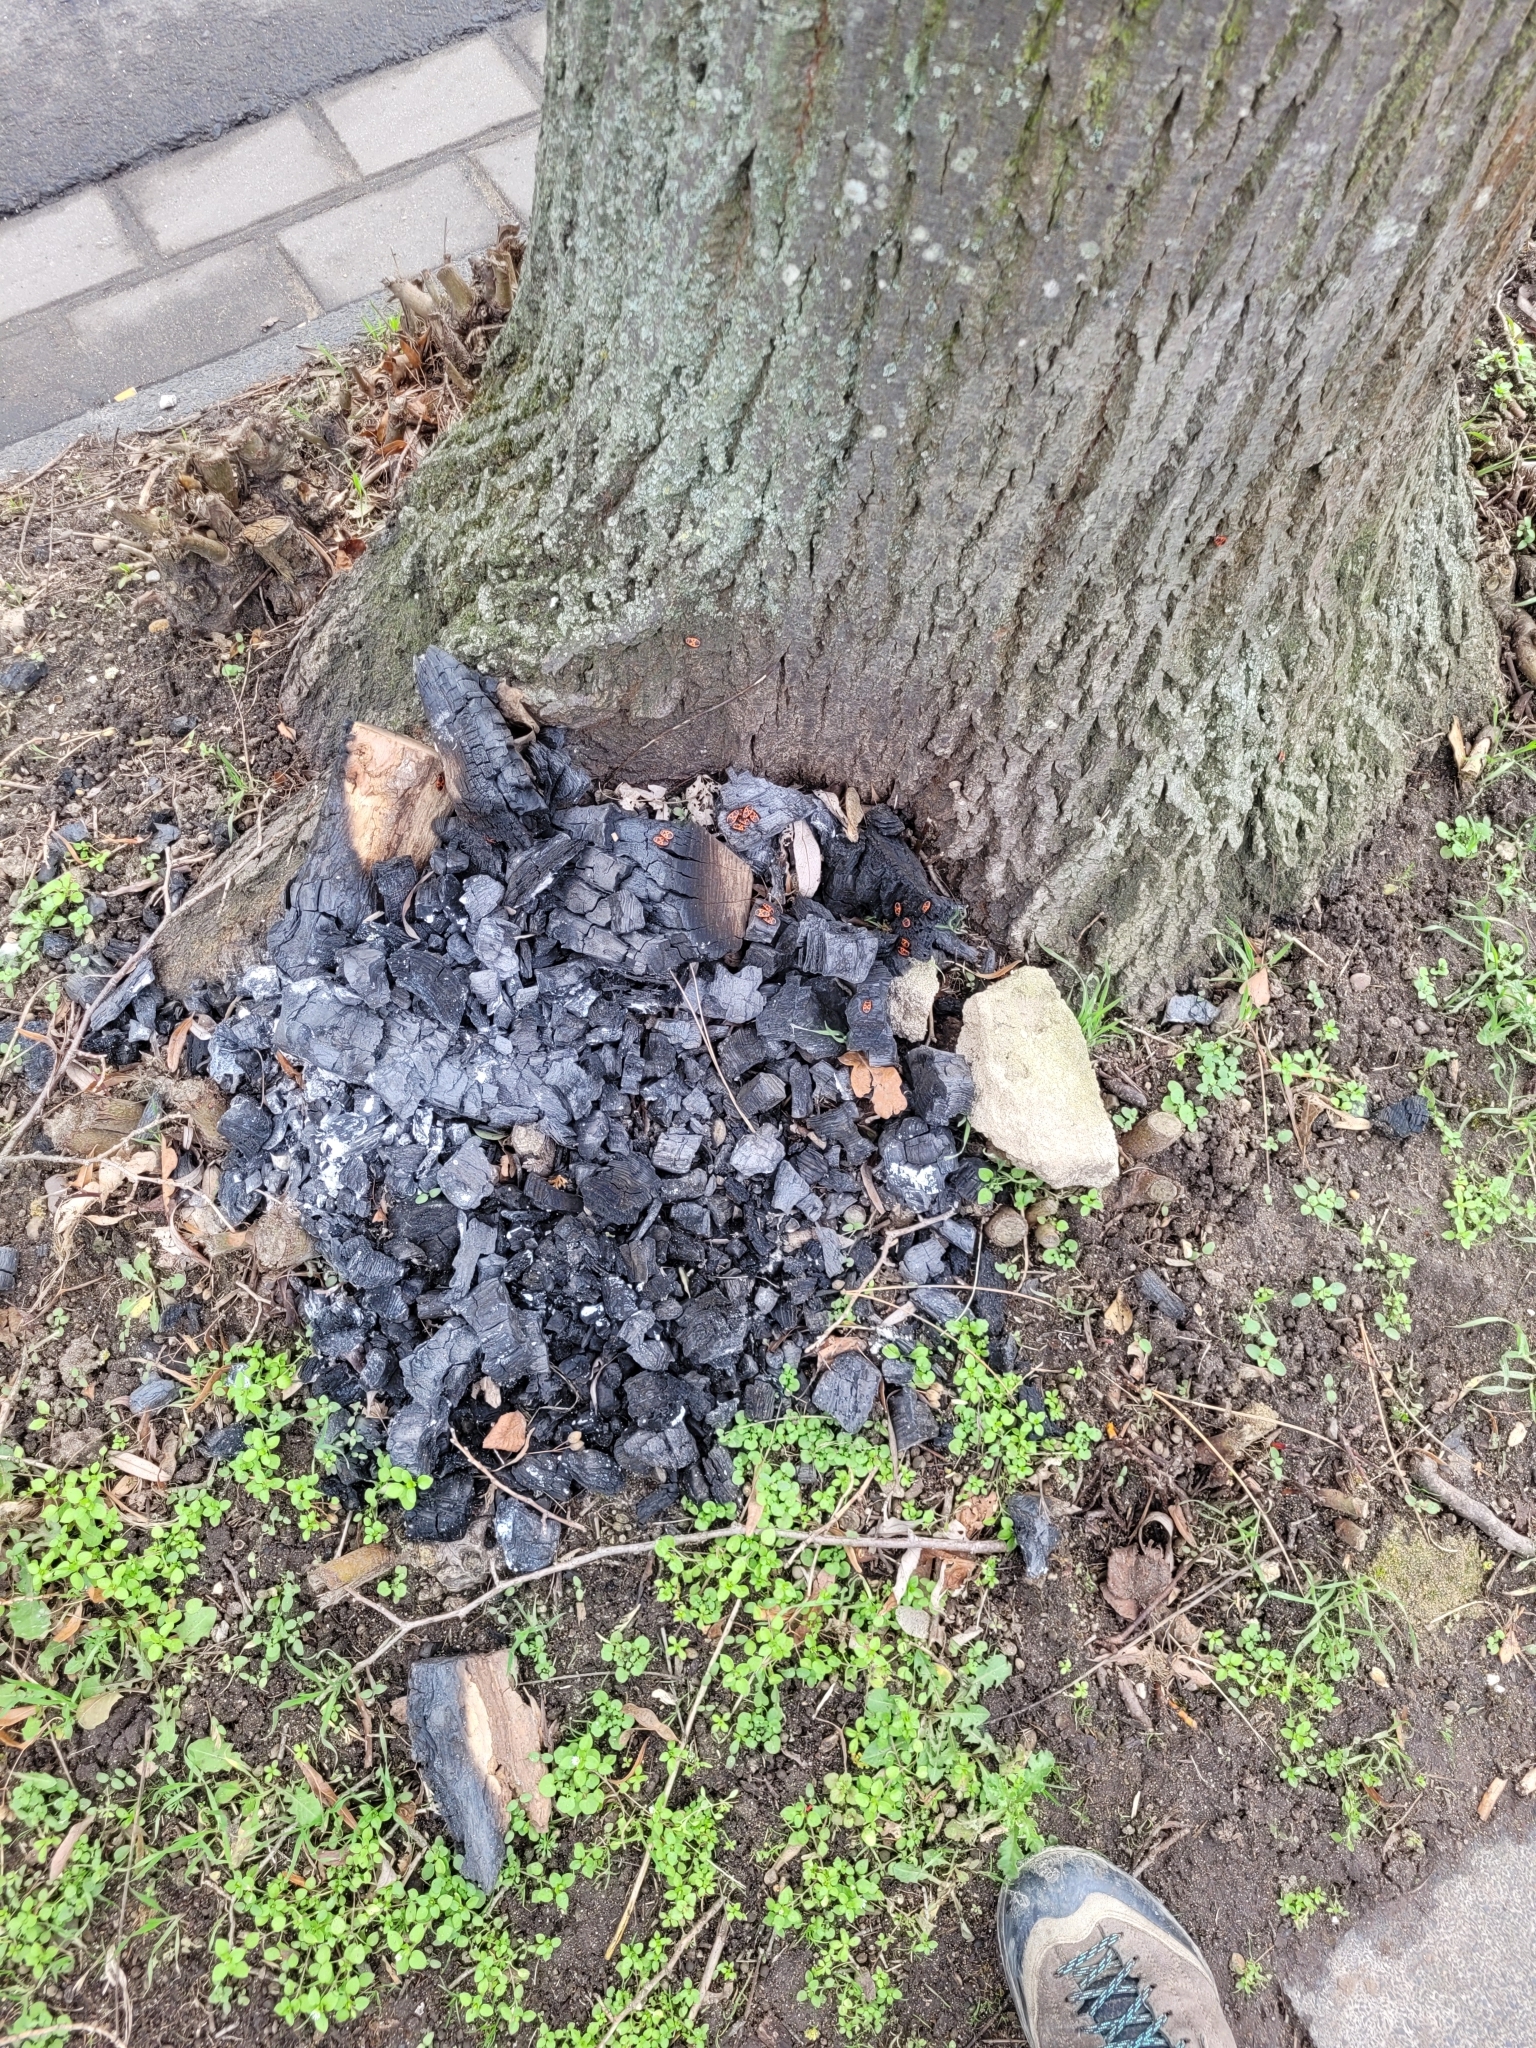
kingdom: Animalia
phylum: Arthropoda
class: Insecta
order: Hemiptera
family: Pyrrhocoridae
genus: Pyrrhocoris
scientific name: Pyrrhocoris apterus
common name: Firebug
